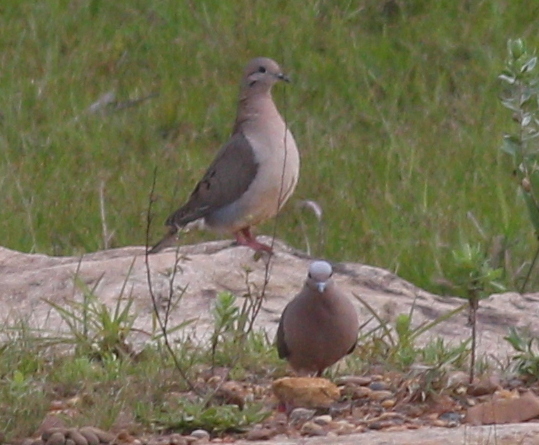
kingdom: Animalia
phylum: Chordata
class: Aves
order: Columbiformes
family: Columbidae
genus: Zenaida
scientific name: Zenaida auriculata
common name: Eared dove
